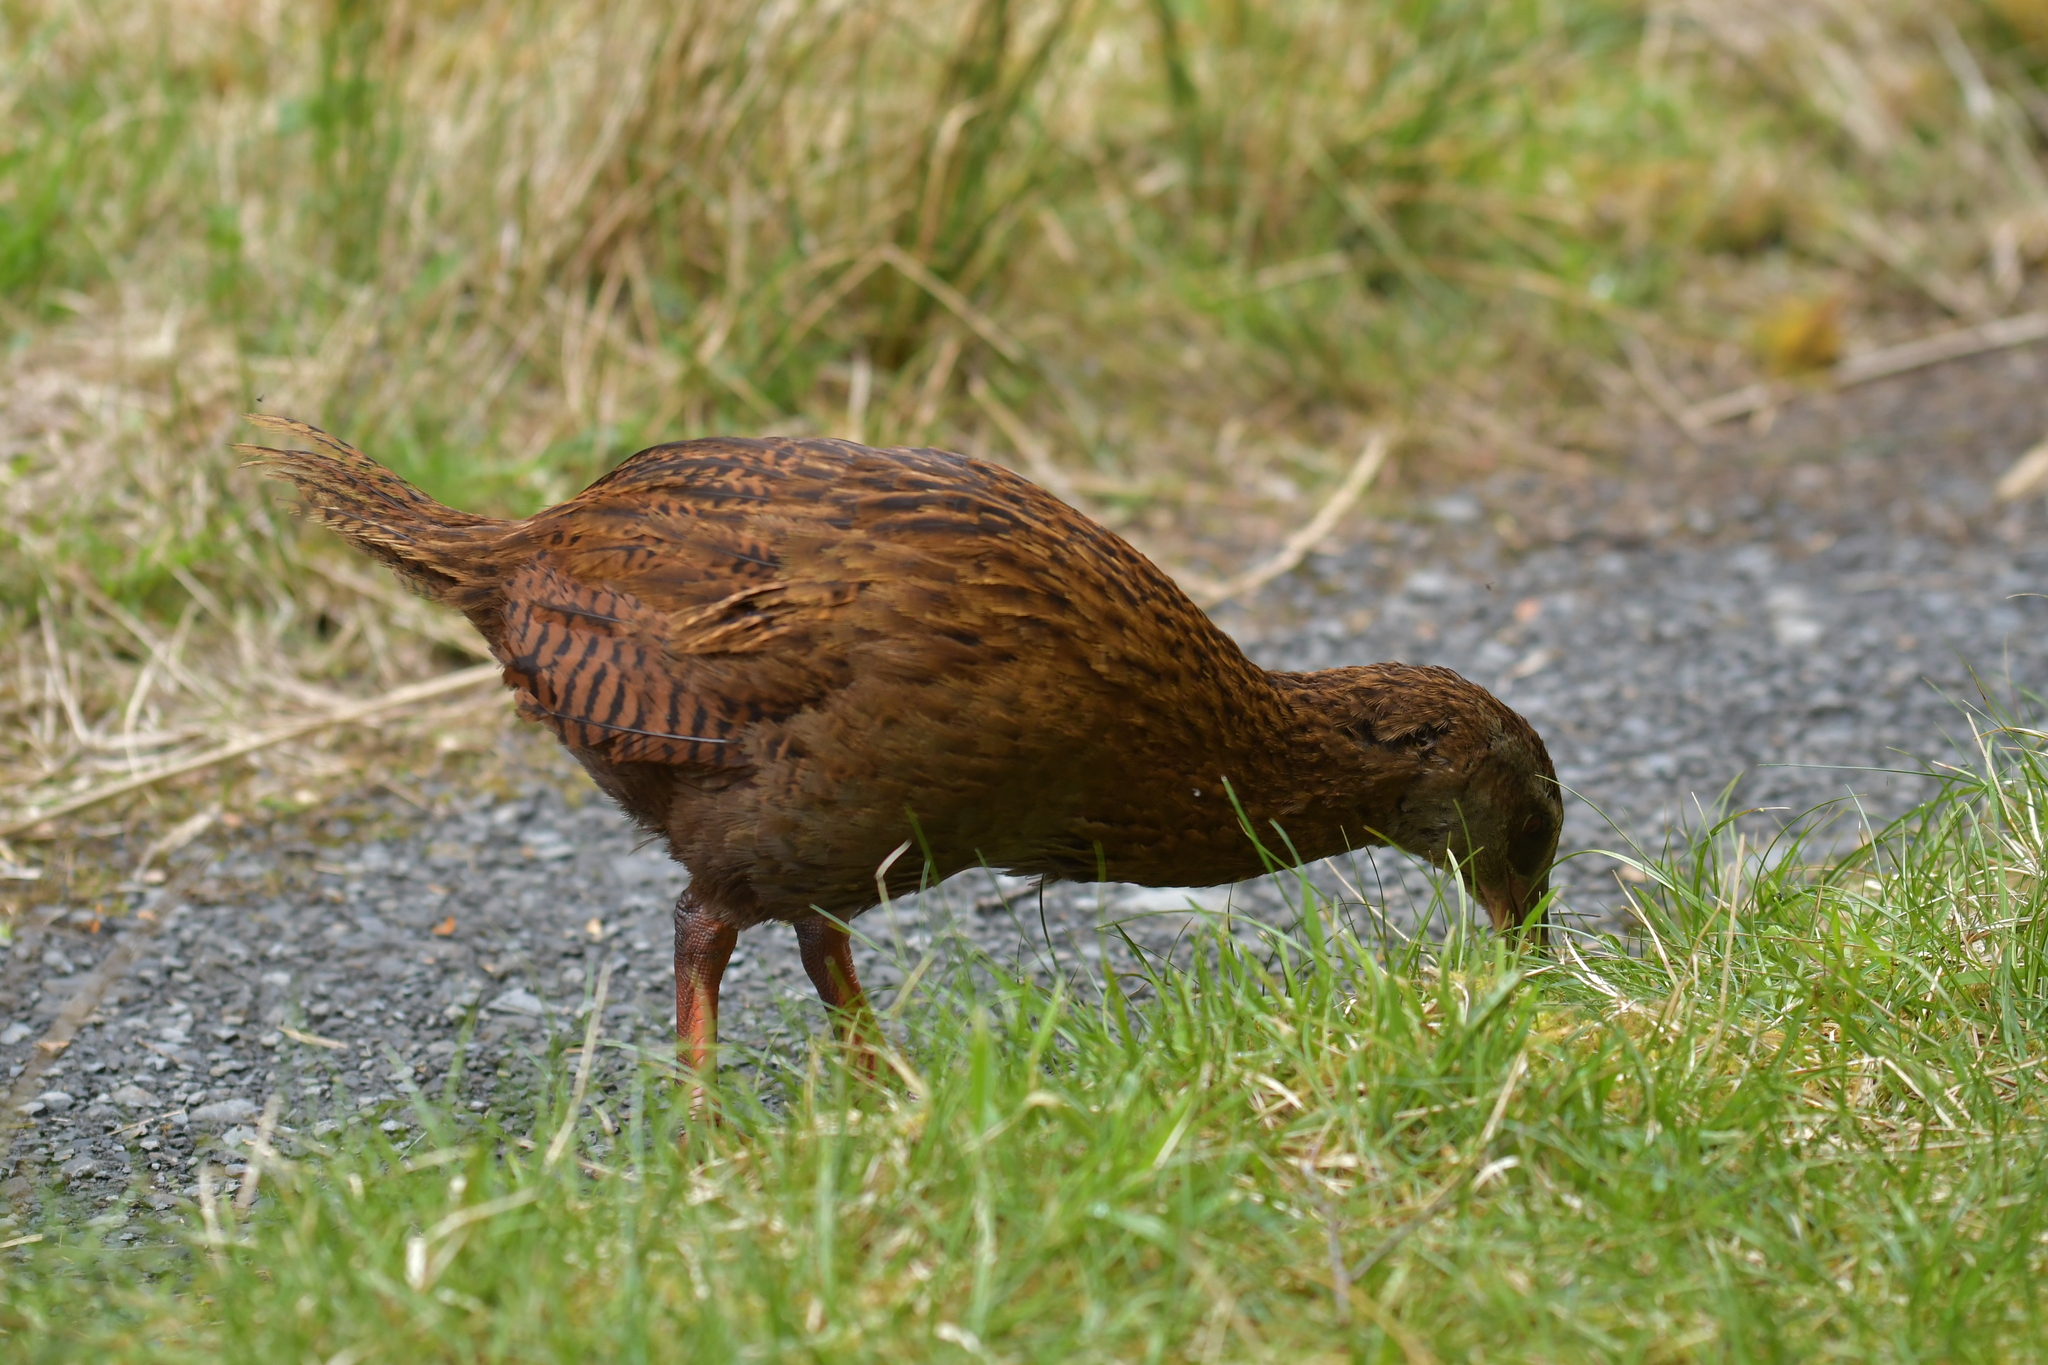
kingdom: Animalia
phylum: Chordata
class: Aves
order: Gruiformes
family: Rallidae
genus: Gallirallus
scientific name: Gallirallus australis
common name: Weka
